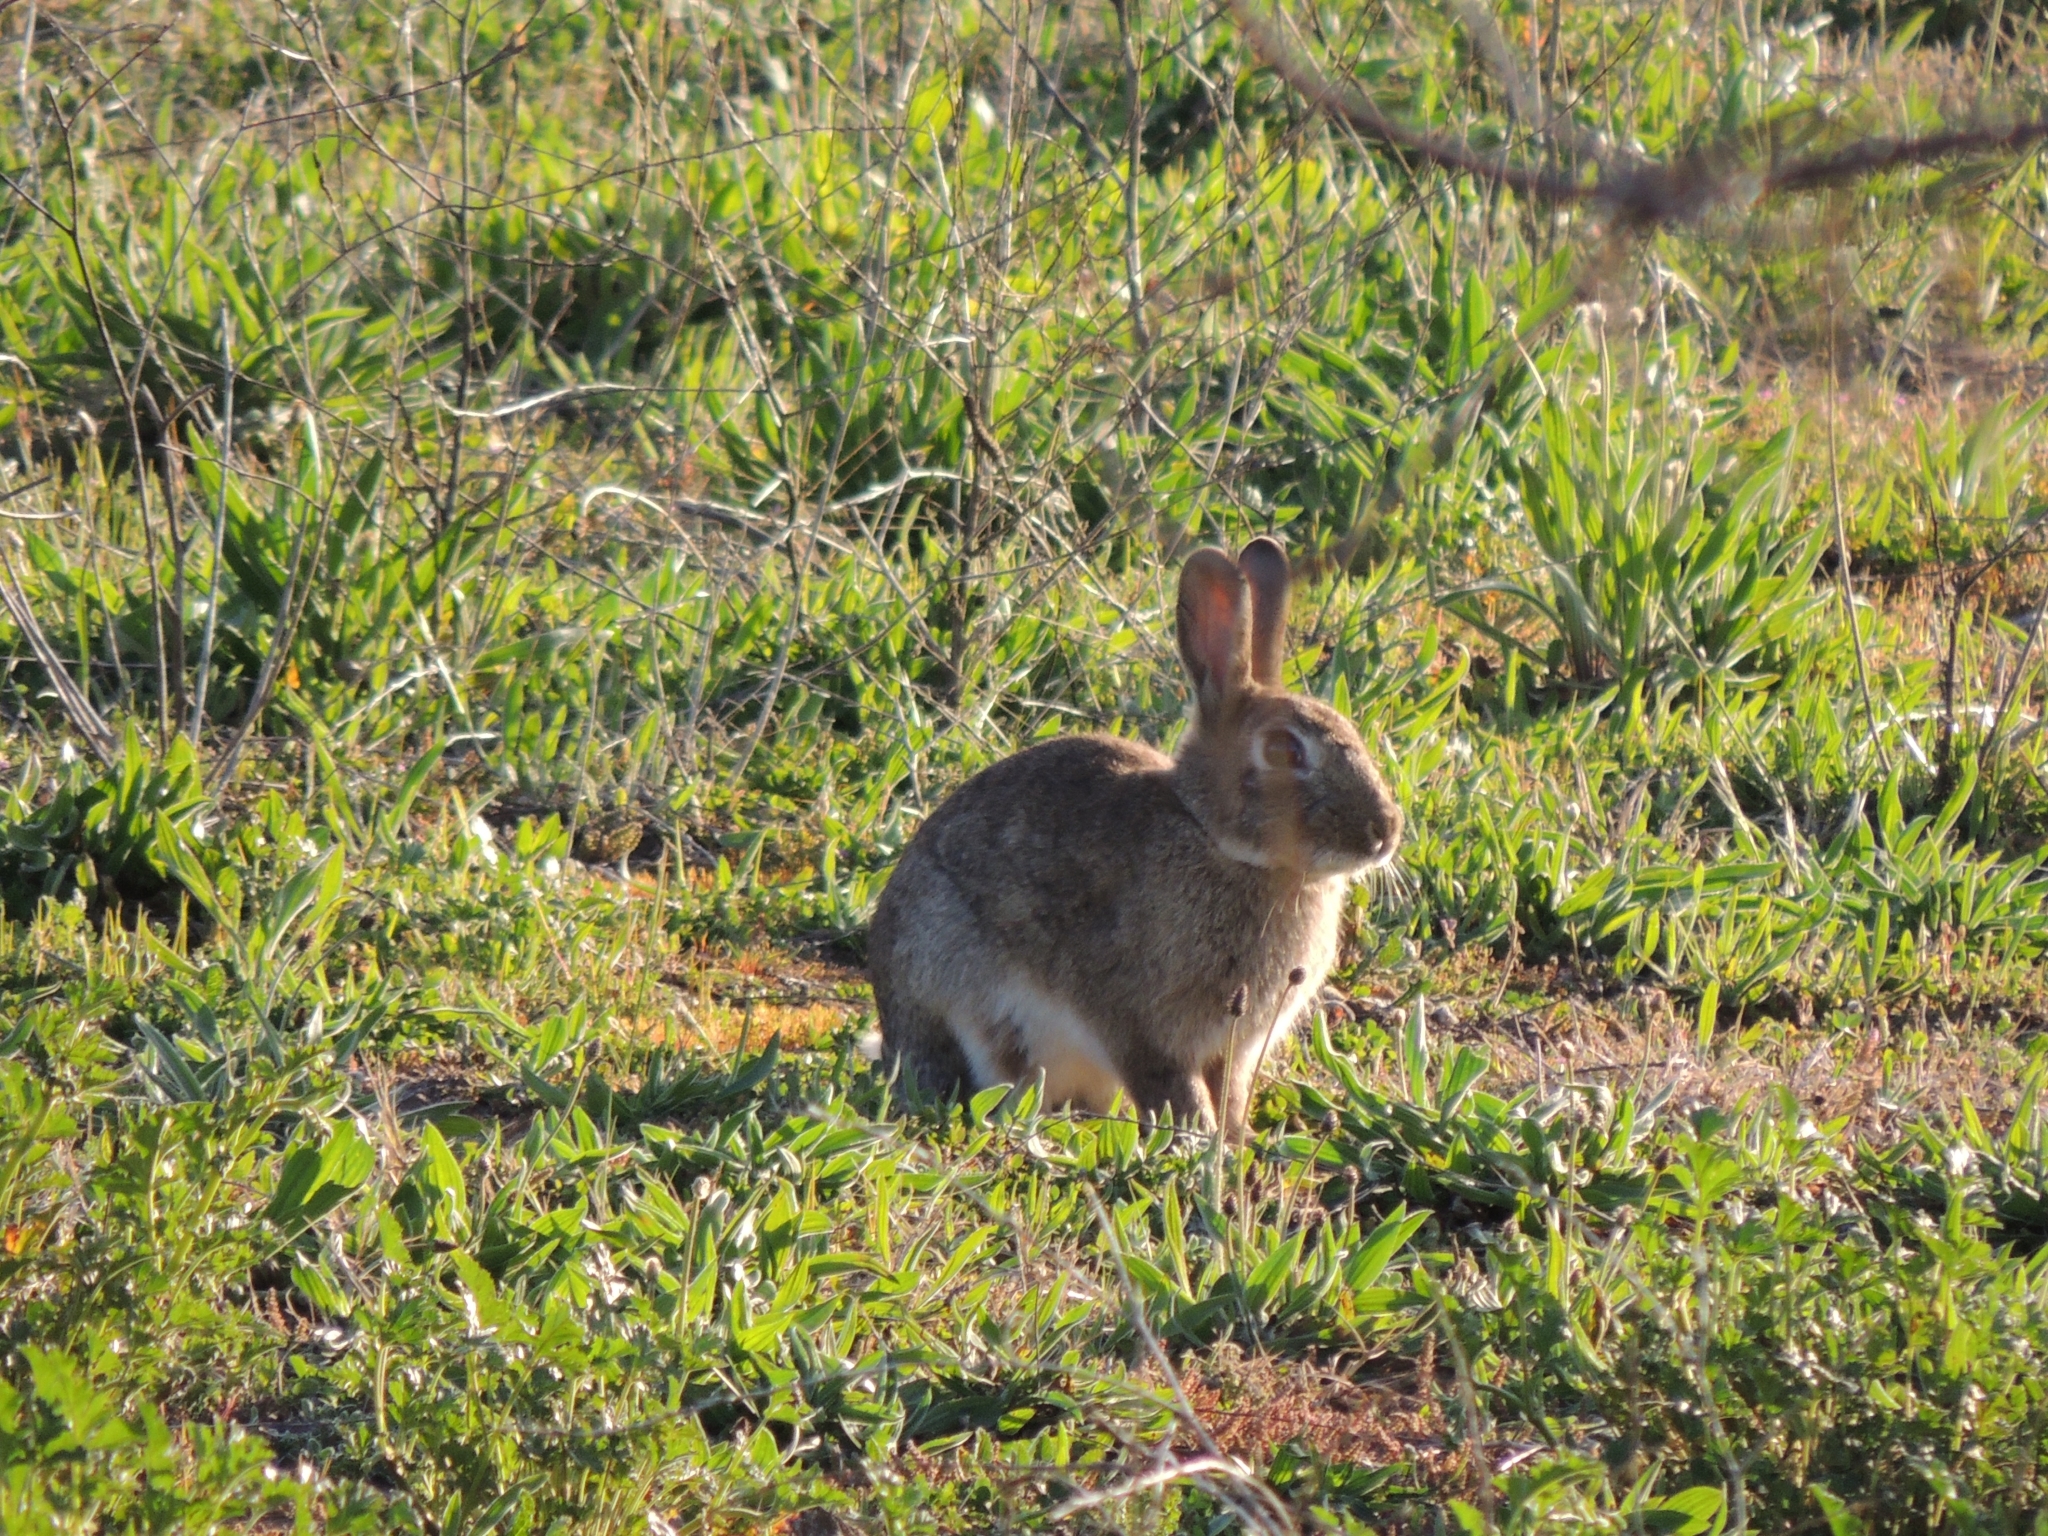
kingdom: Animalia
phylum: Chordata
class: Mammalia
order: Lagomorpha
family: Leporidae
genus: Oryctolagus
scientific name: Oryctolagus cuniculus
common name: European rabbit
